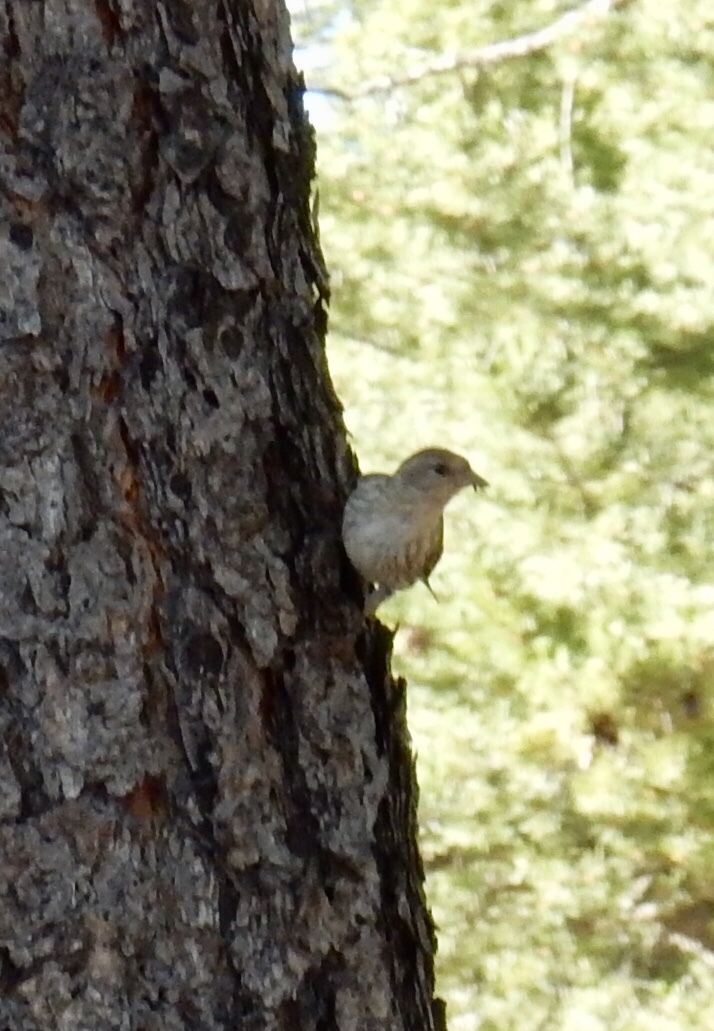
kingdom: Animalia
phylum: Chordata
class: Aves
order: Passeriformes
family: Fringillidae
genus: Spinus
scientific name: Spinus pinus
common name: Pine siskin
